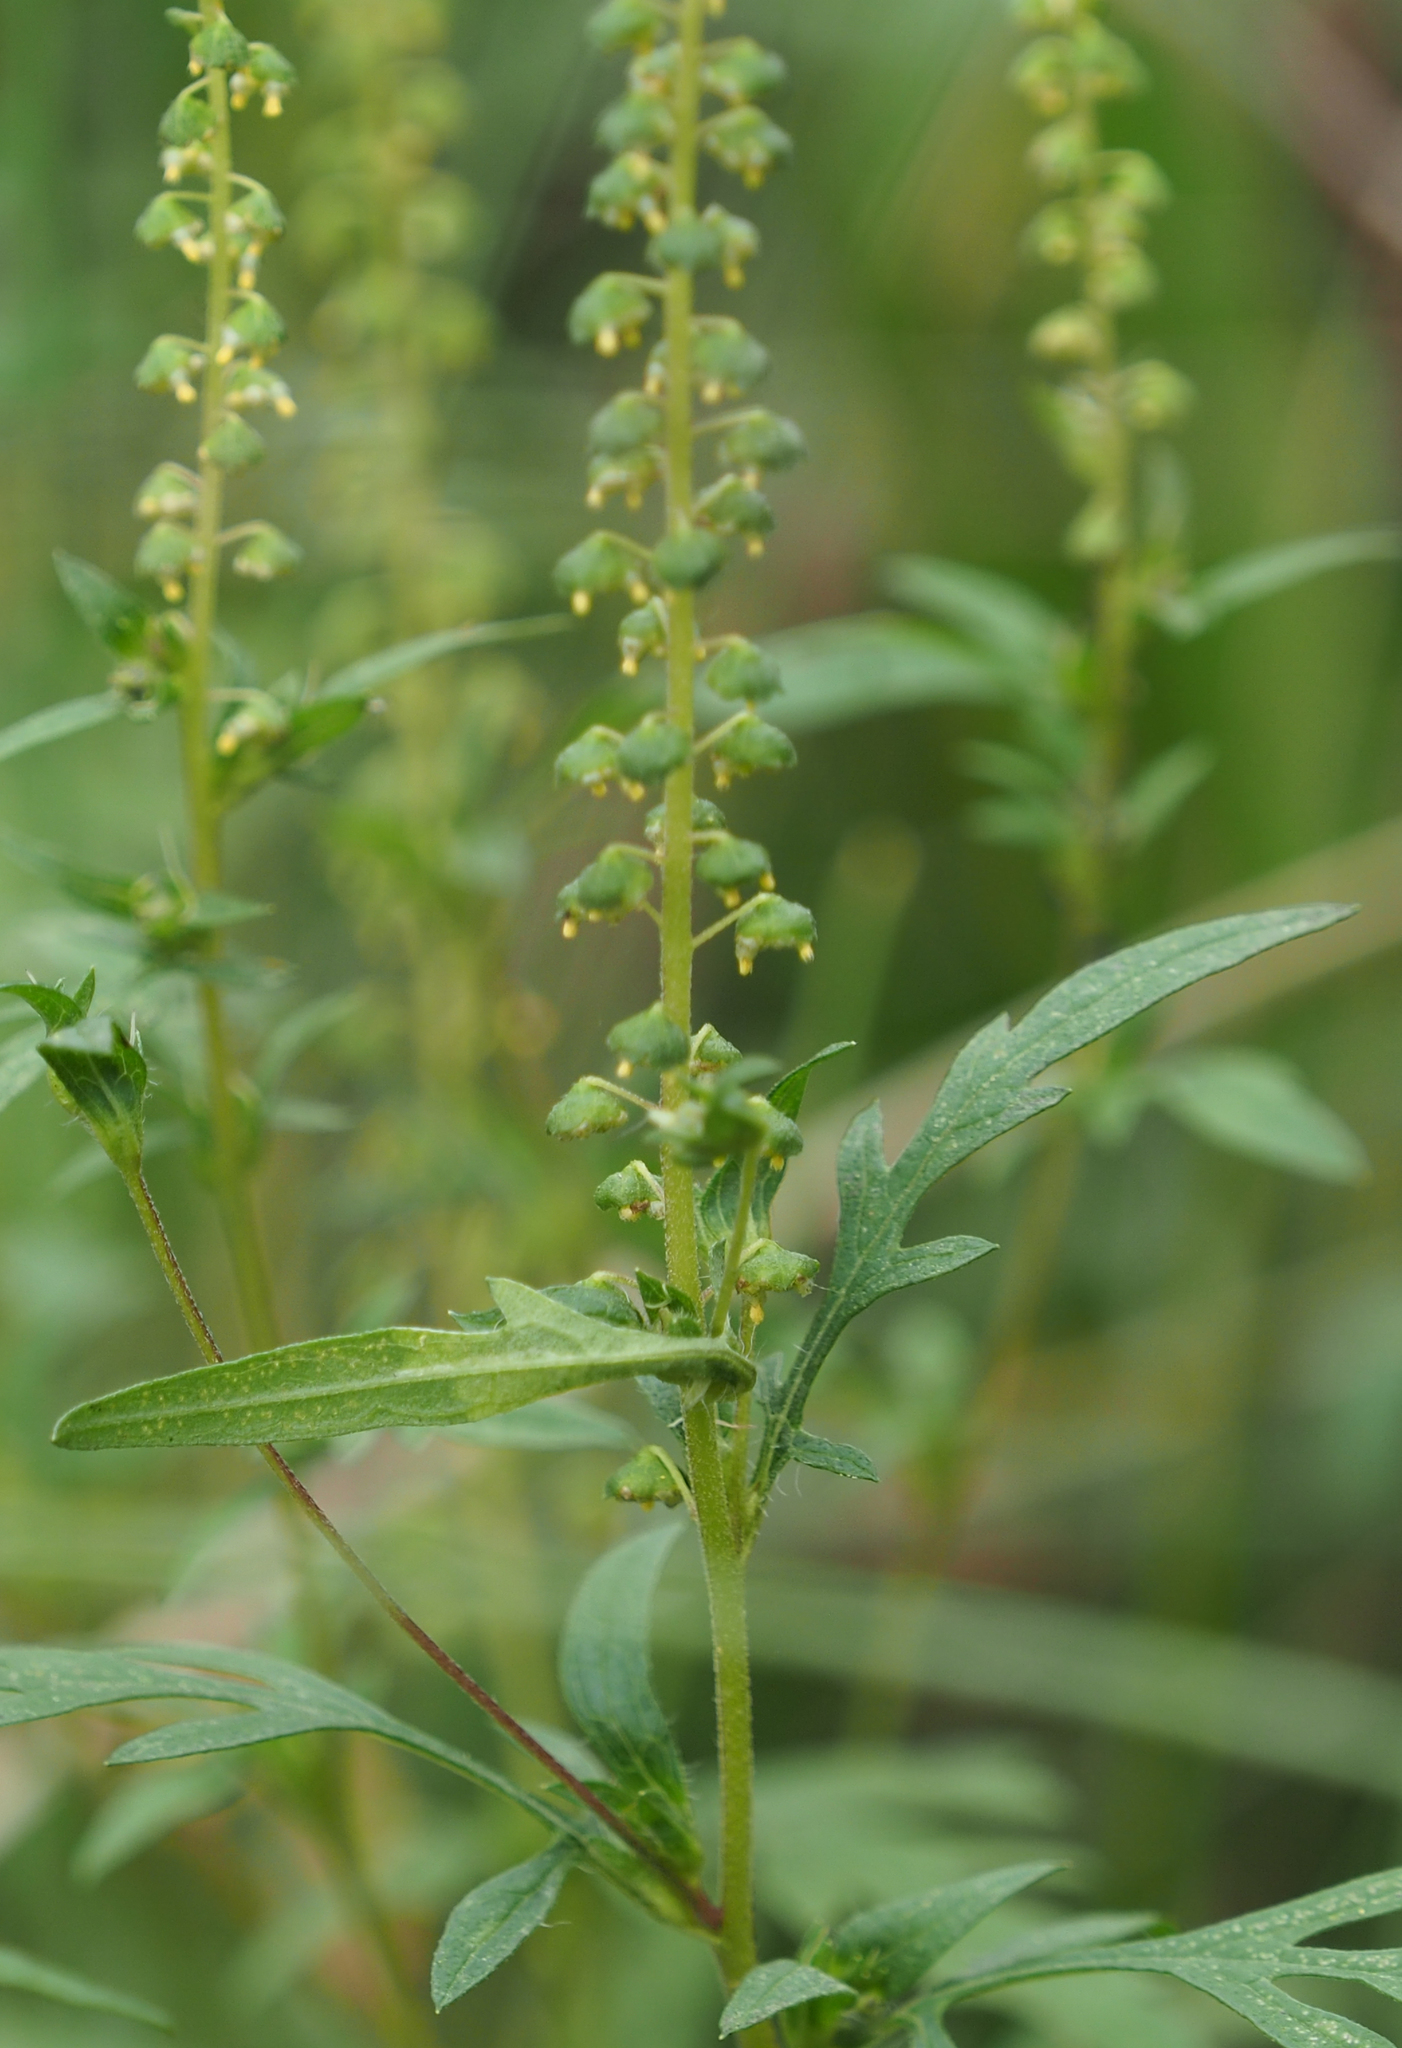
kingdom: Plantae
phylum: Tracheophyta
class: Magnoliopsida
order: Asterales
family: Asteraceae
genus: Ambrosia
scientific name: Ambrosia artemisiifolia
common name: Annual ragweed
